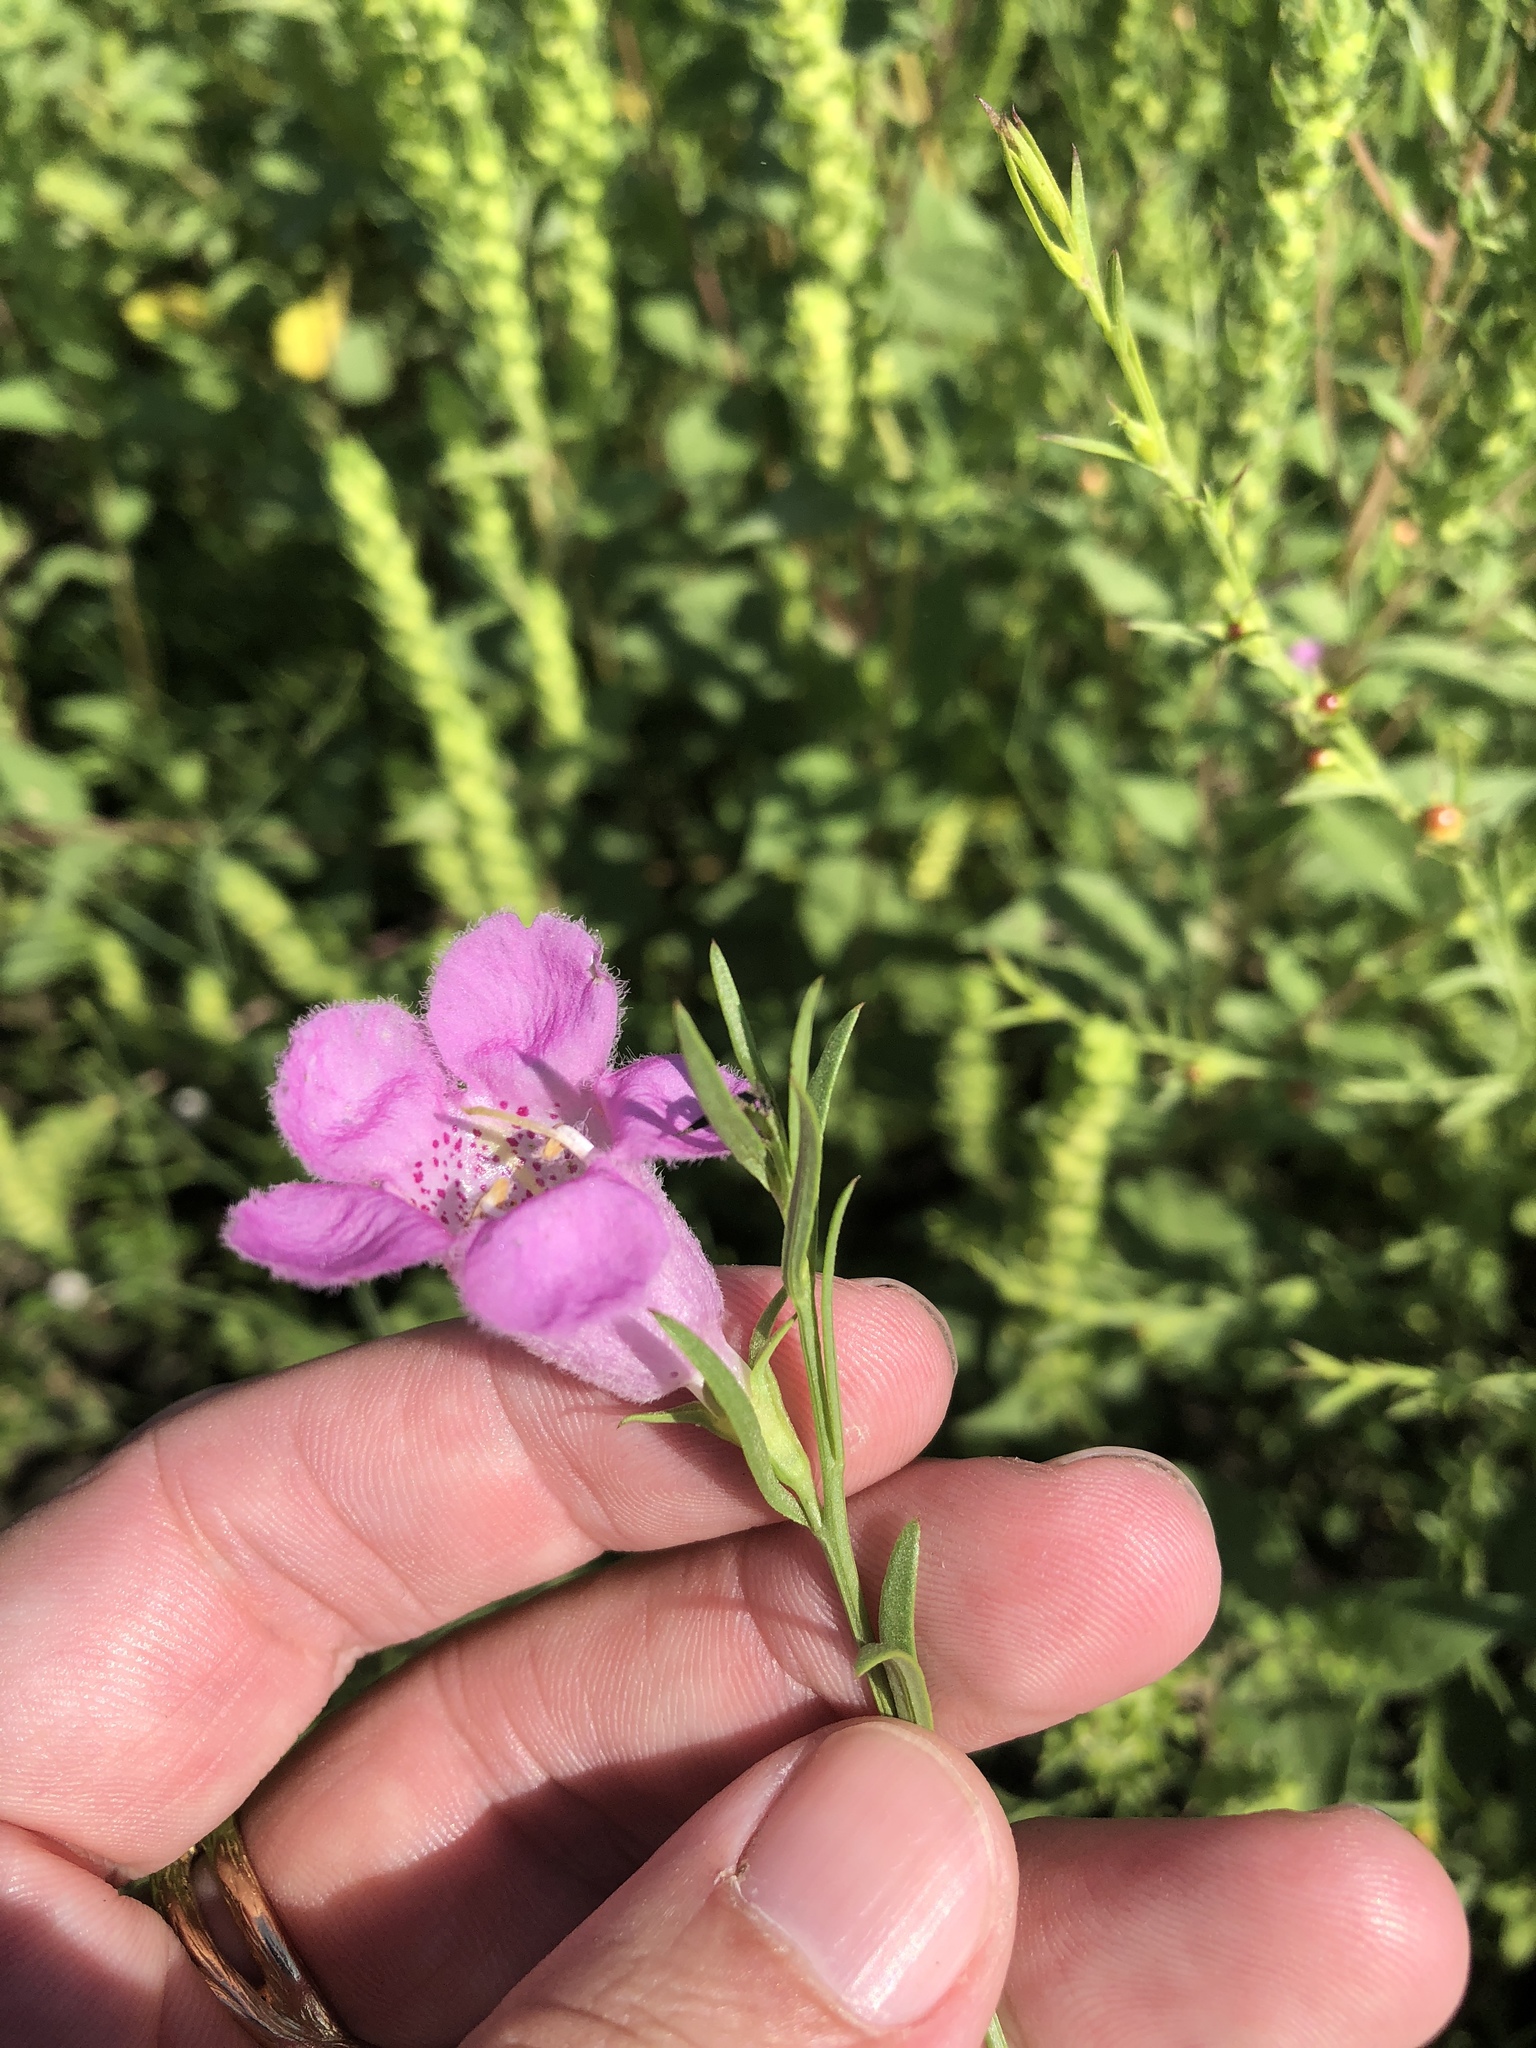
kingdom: Plantae
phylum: Tracheophyta
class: Magnoliopsida
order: Lamiales
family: Orobanchaceae
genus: Agalinis
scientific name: Agalinis heterophylla
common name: Prairie agalinis
